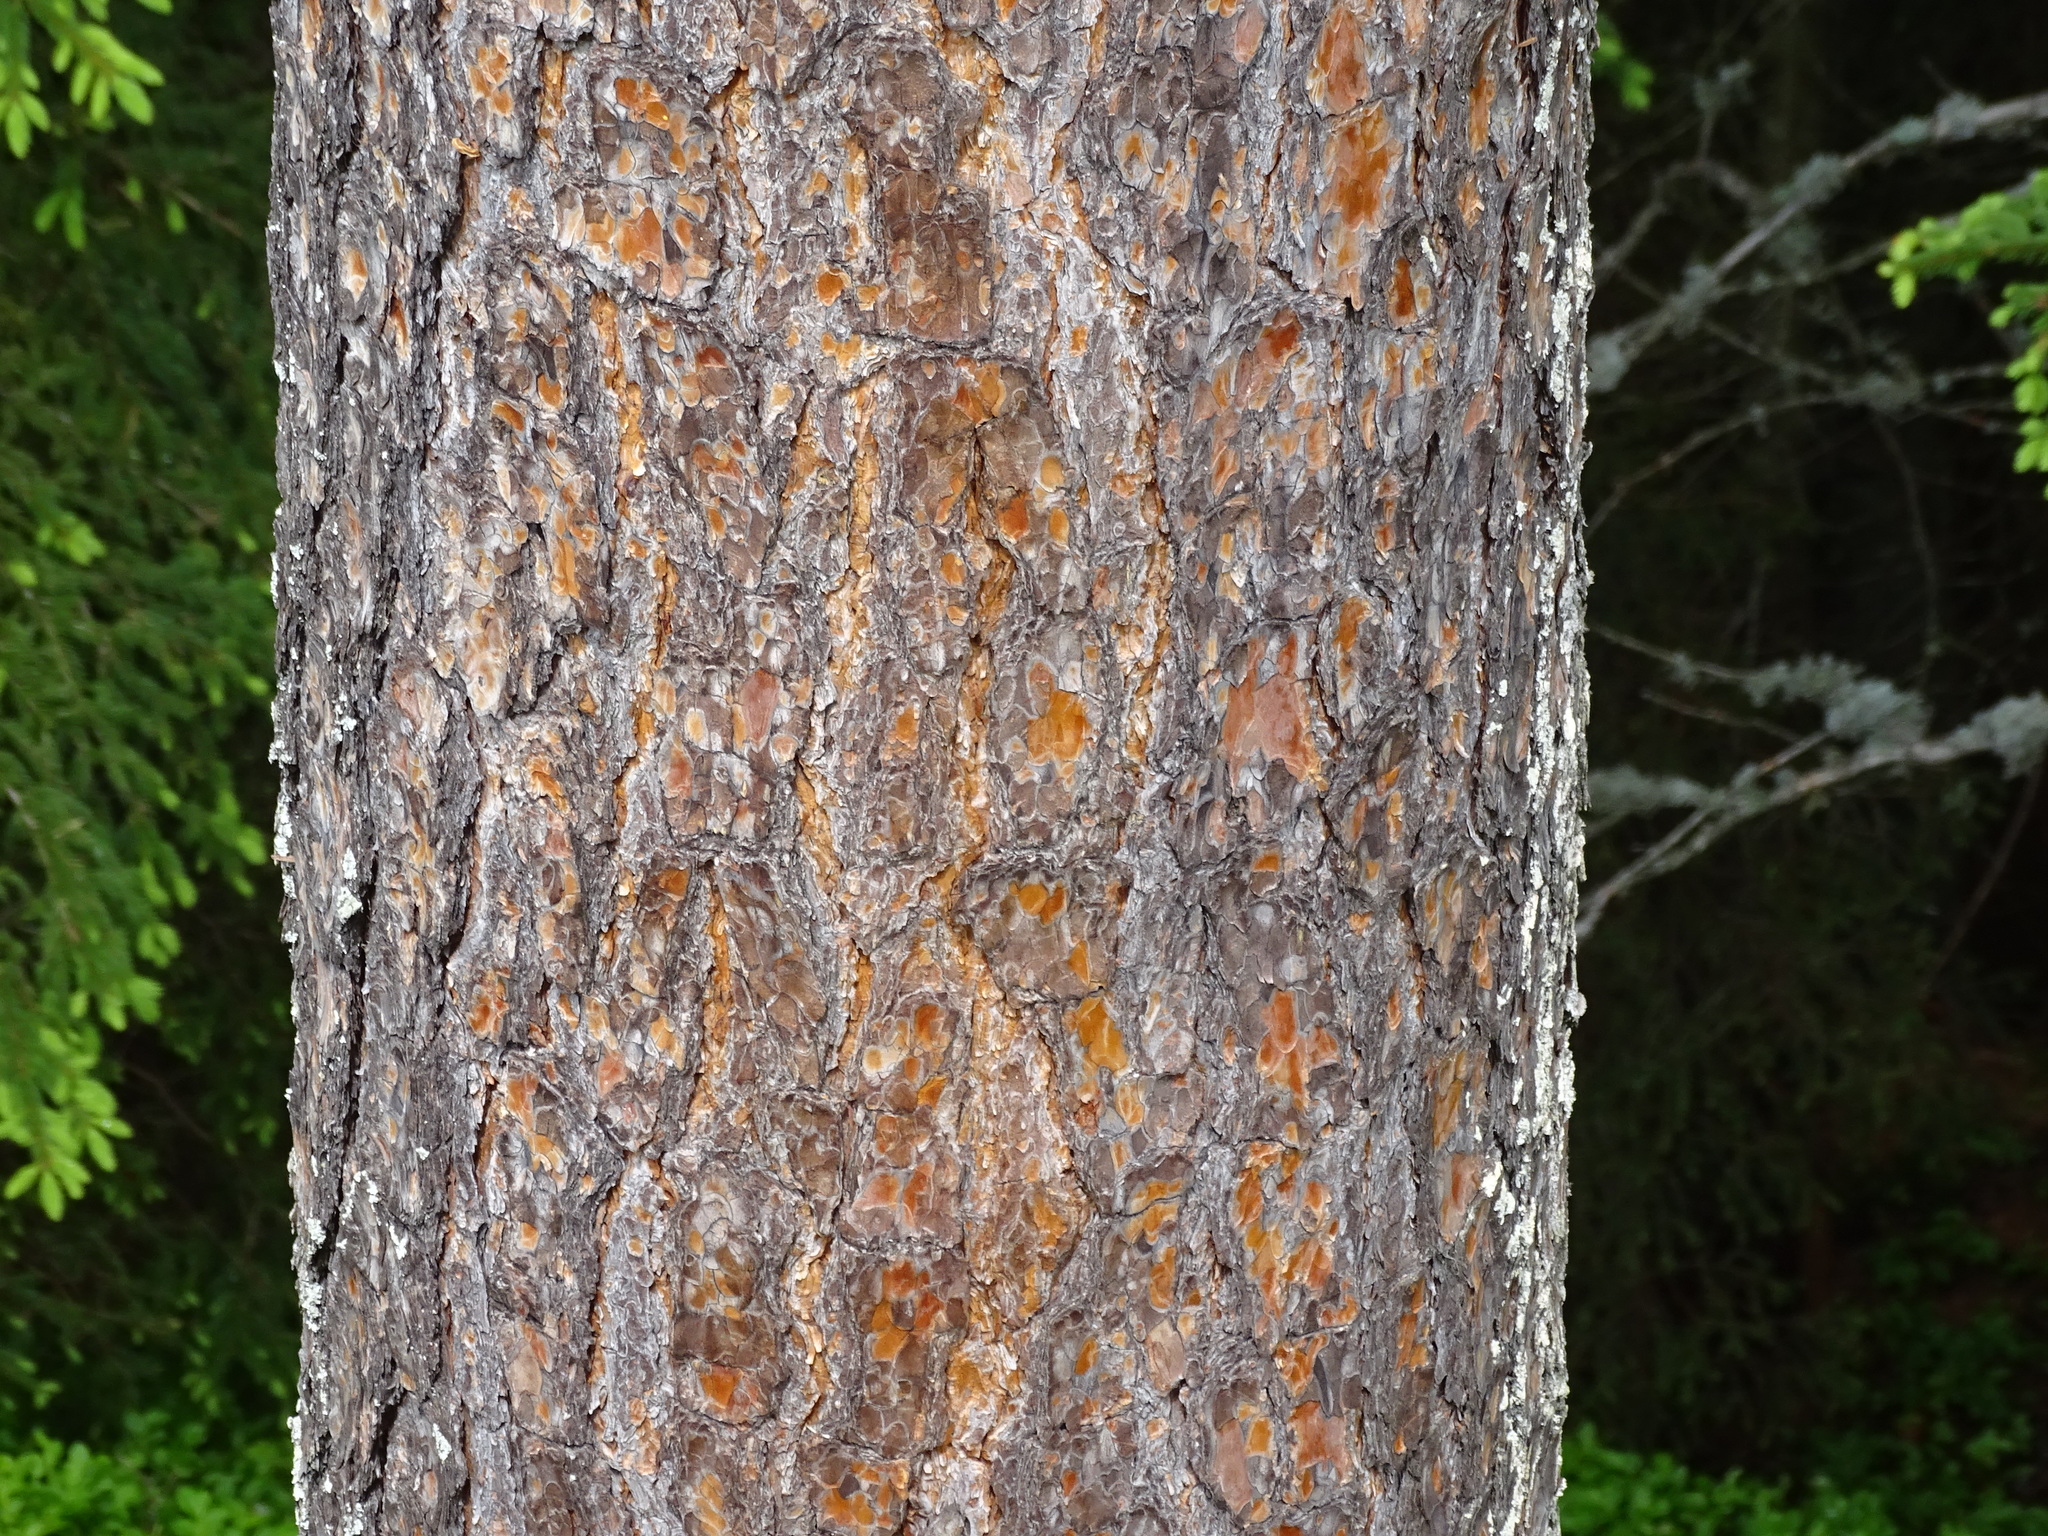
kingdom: Plantae
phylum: Tracheophyta
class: Pinopsida
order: Pinales
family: Pinaceae
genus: Pinus
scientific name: Pinus sylvestris
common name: Scots pine
